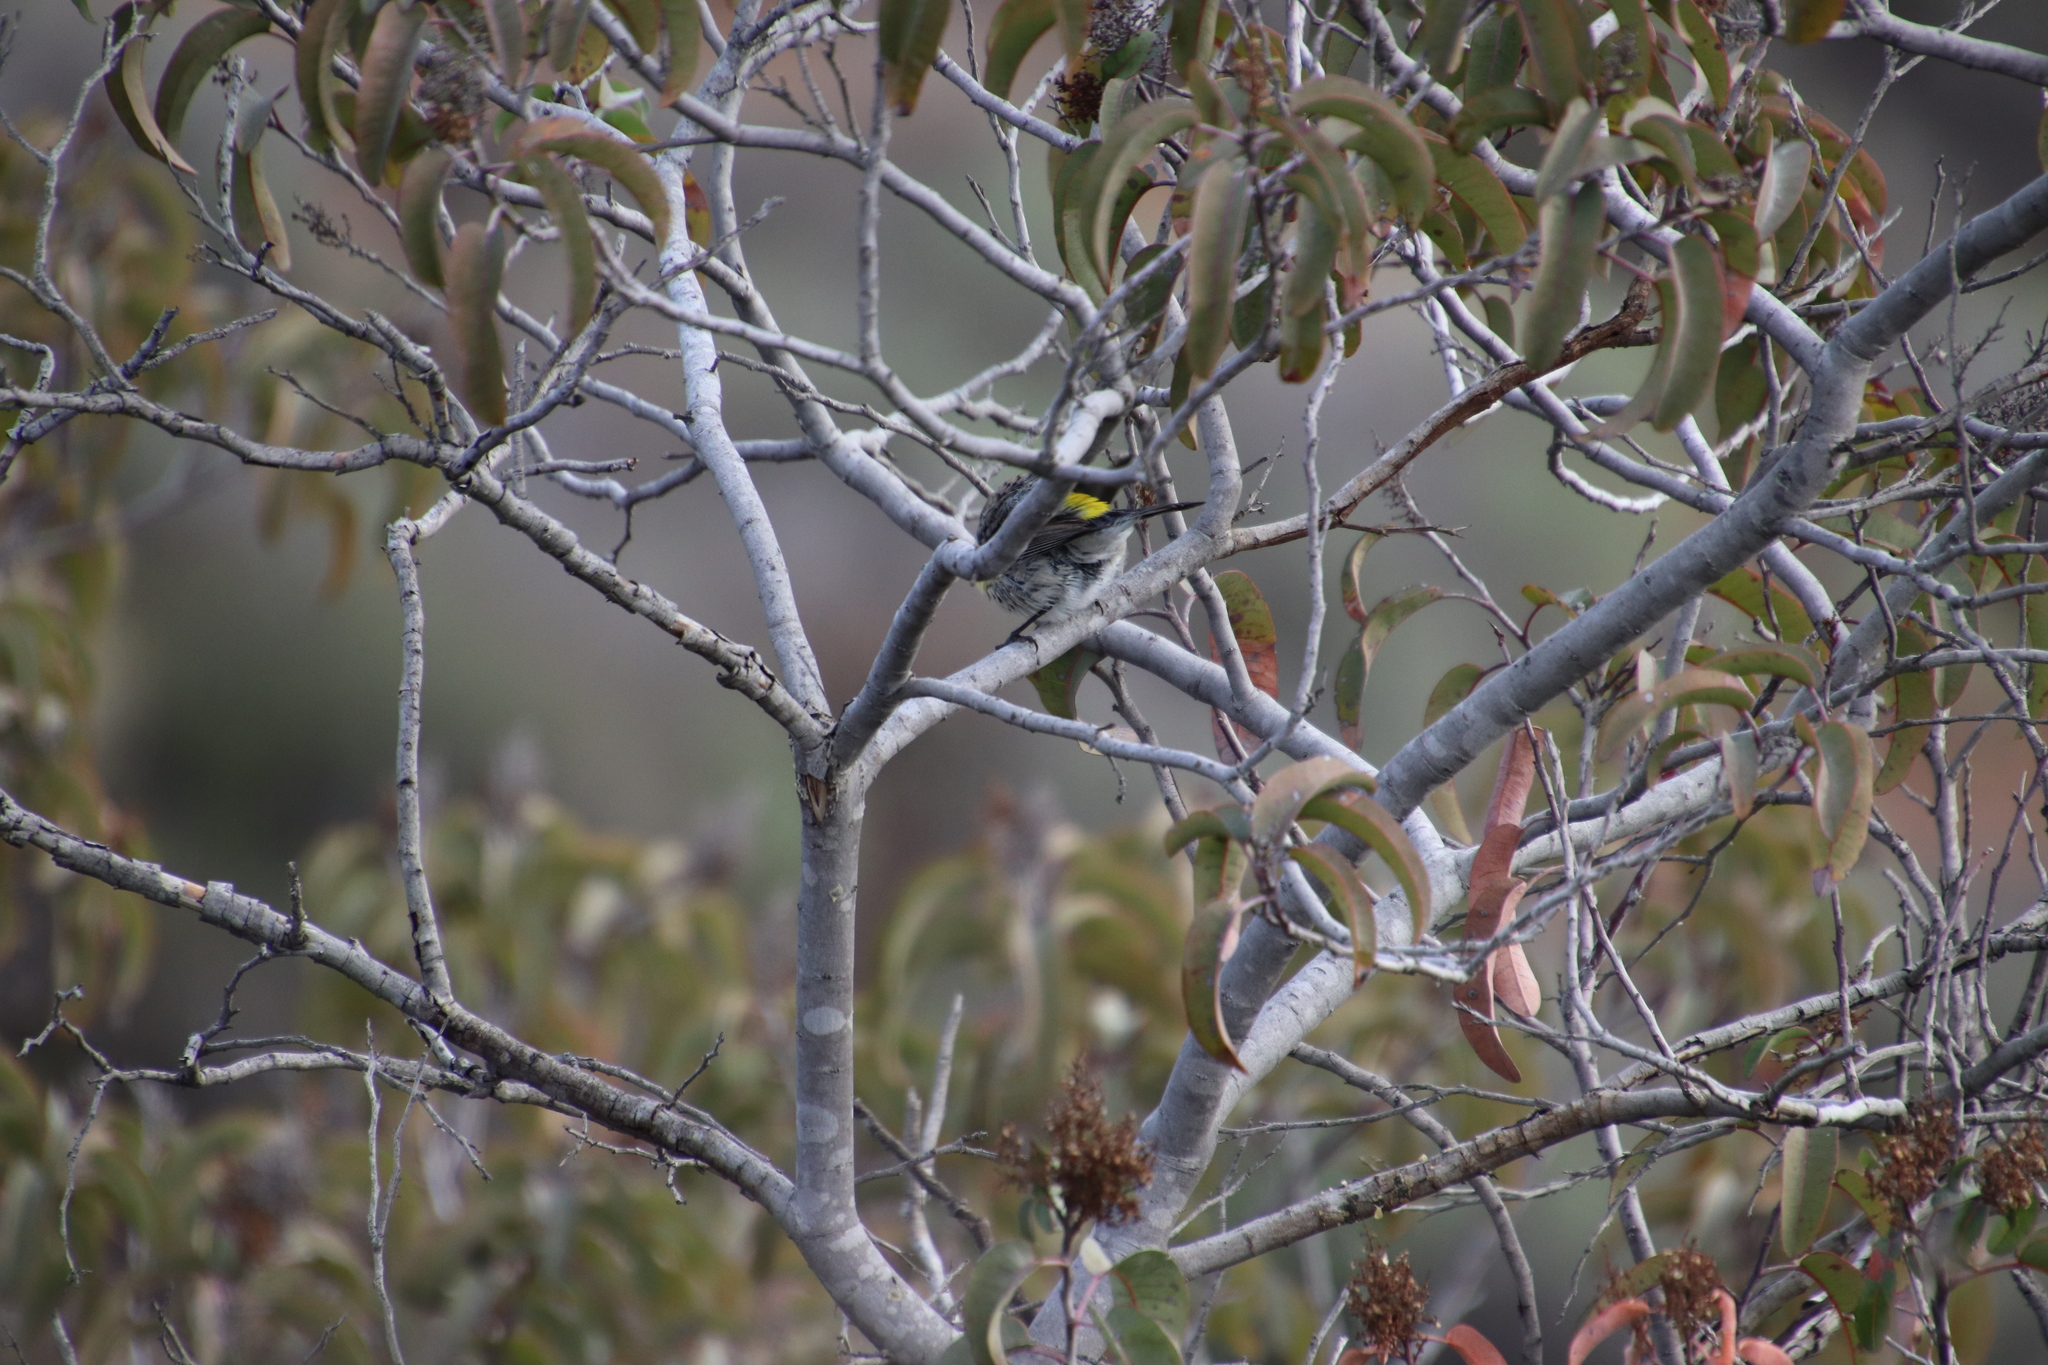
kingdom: Animalia
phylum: Chordata
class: Aves
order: Passeriformes
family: Parulidae
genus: Setophaga
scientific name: Setophaga coronata
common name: Myrtle warbler
